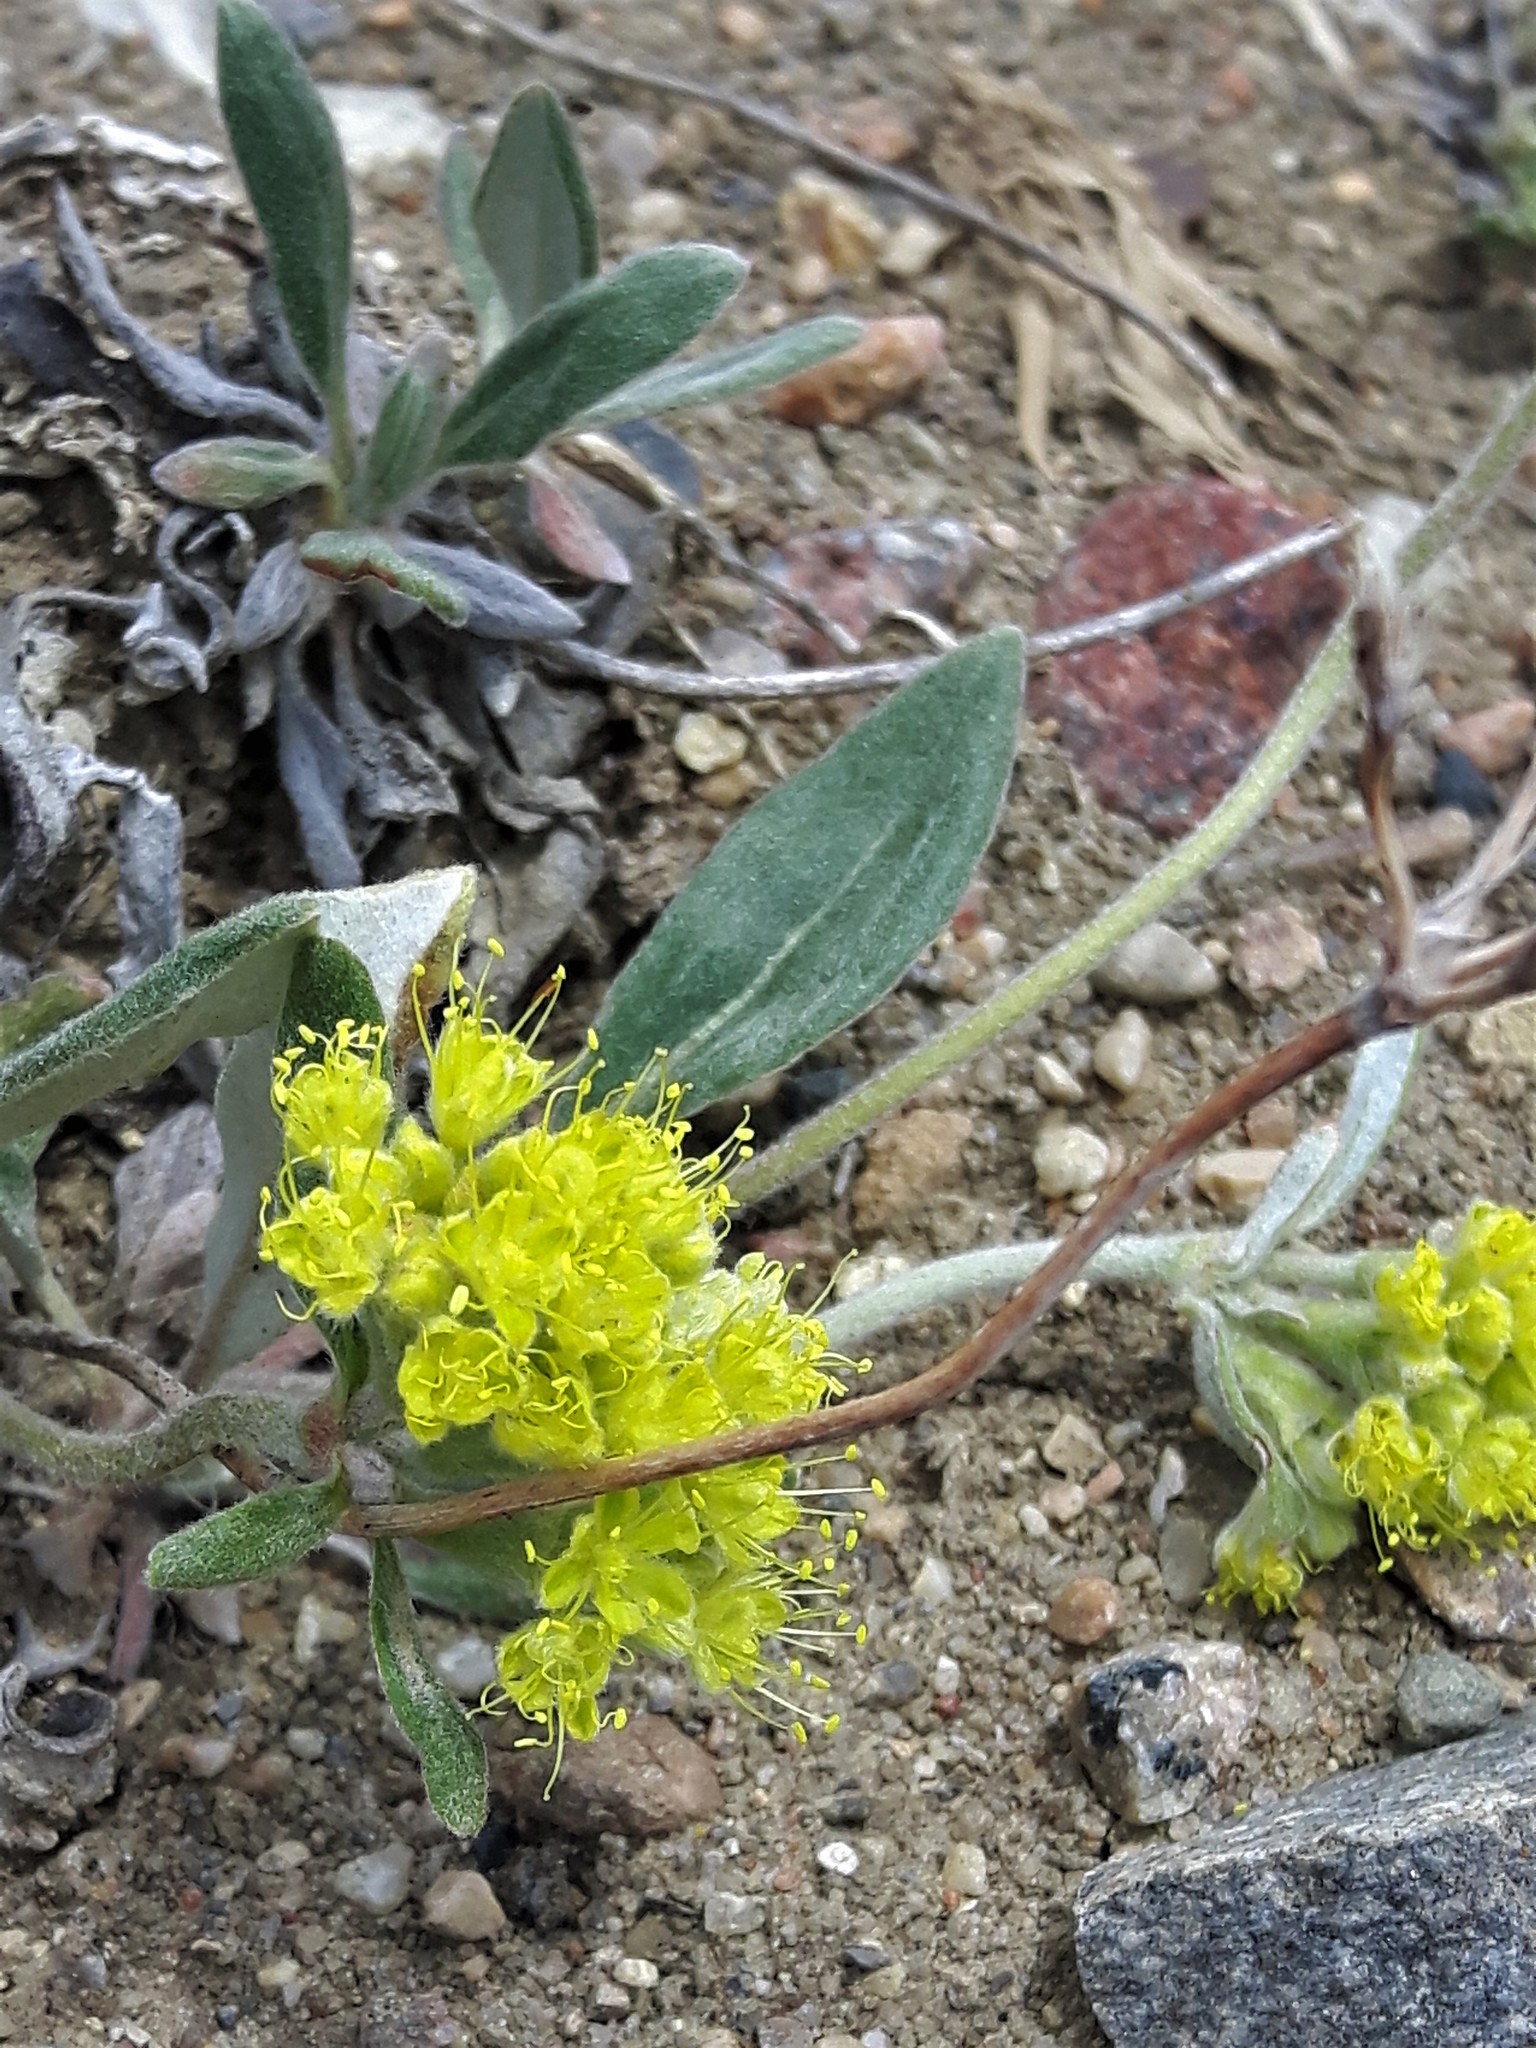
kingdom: Plantae
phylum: Tracheophyta
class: Magnoliopsida
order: Caryophyllales
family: Polygonaceae
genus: Eriogonum
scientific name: Eriogonum flavum
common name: Alpine golden wild buckwheat
